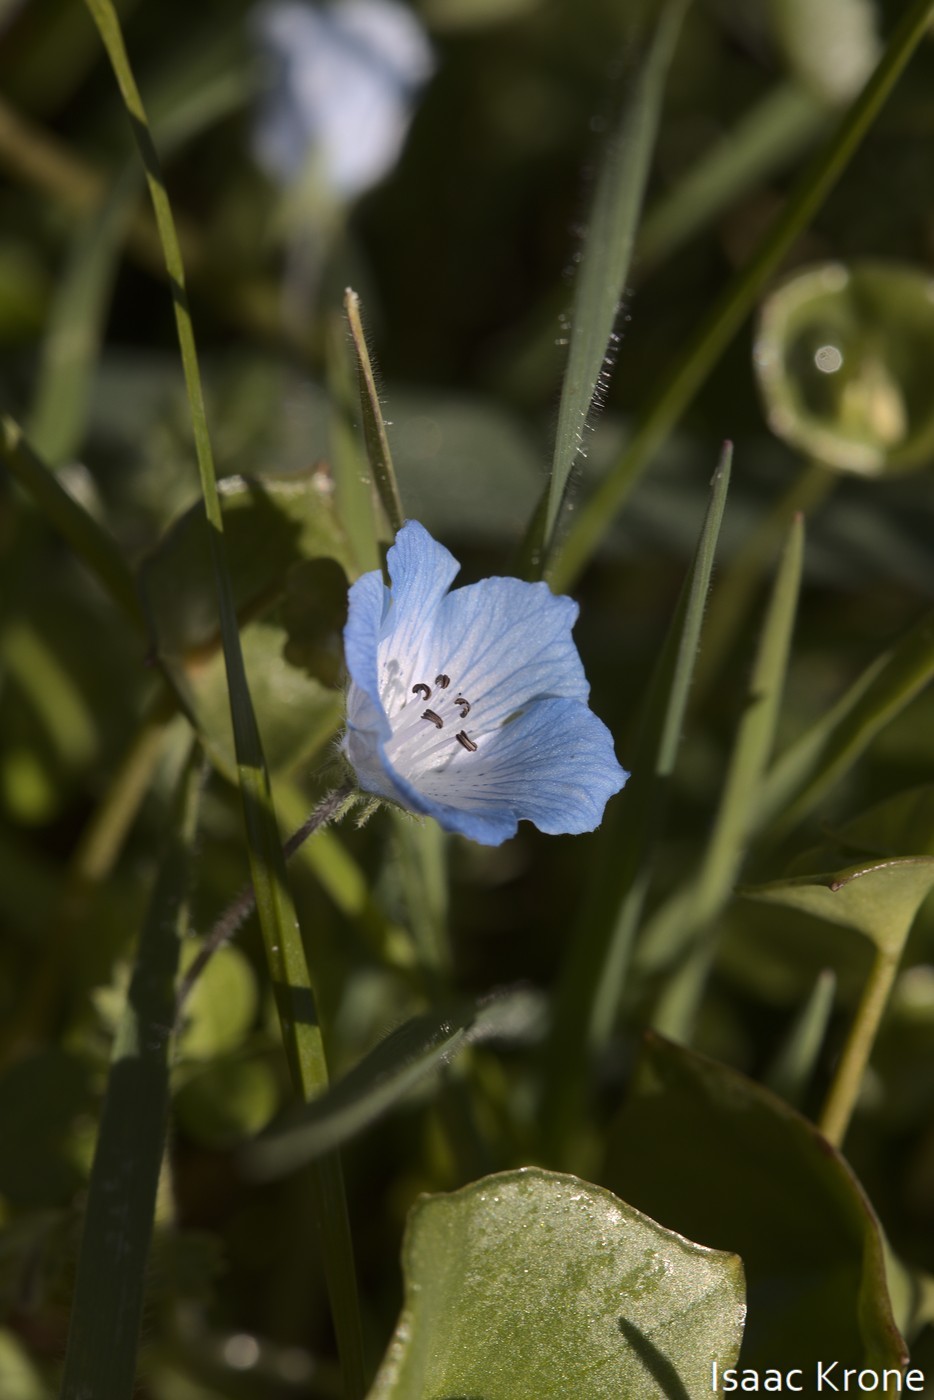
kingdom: Plantae
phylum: Tracheophyta
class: Magnoliopsida
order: Boraginales
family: Hydrophyllaceae
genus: Nemophila
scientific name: Nemophila menziesii
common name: Baby's-blue-eyes
